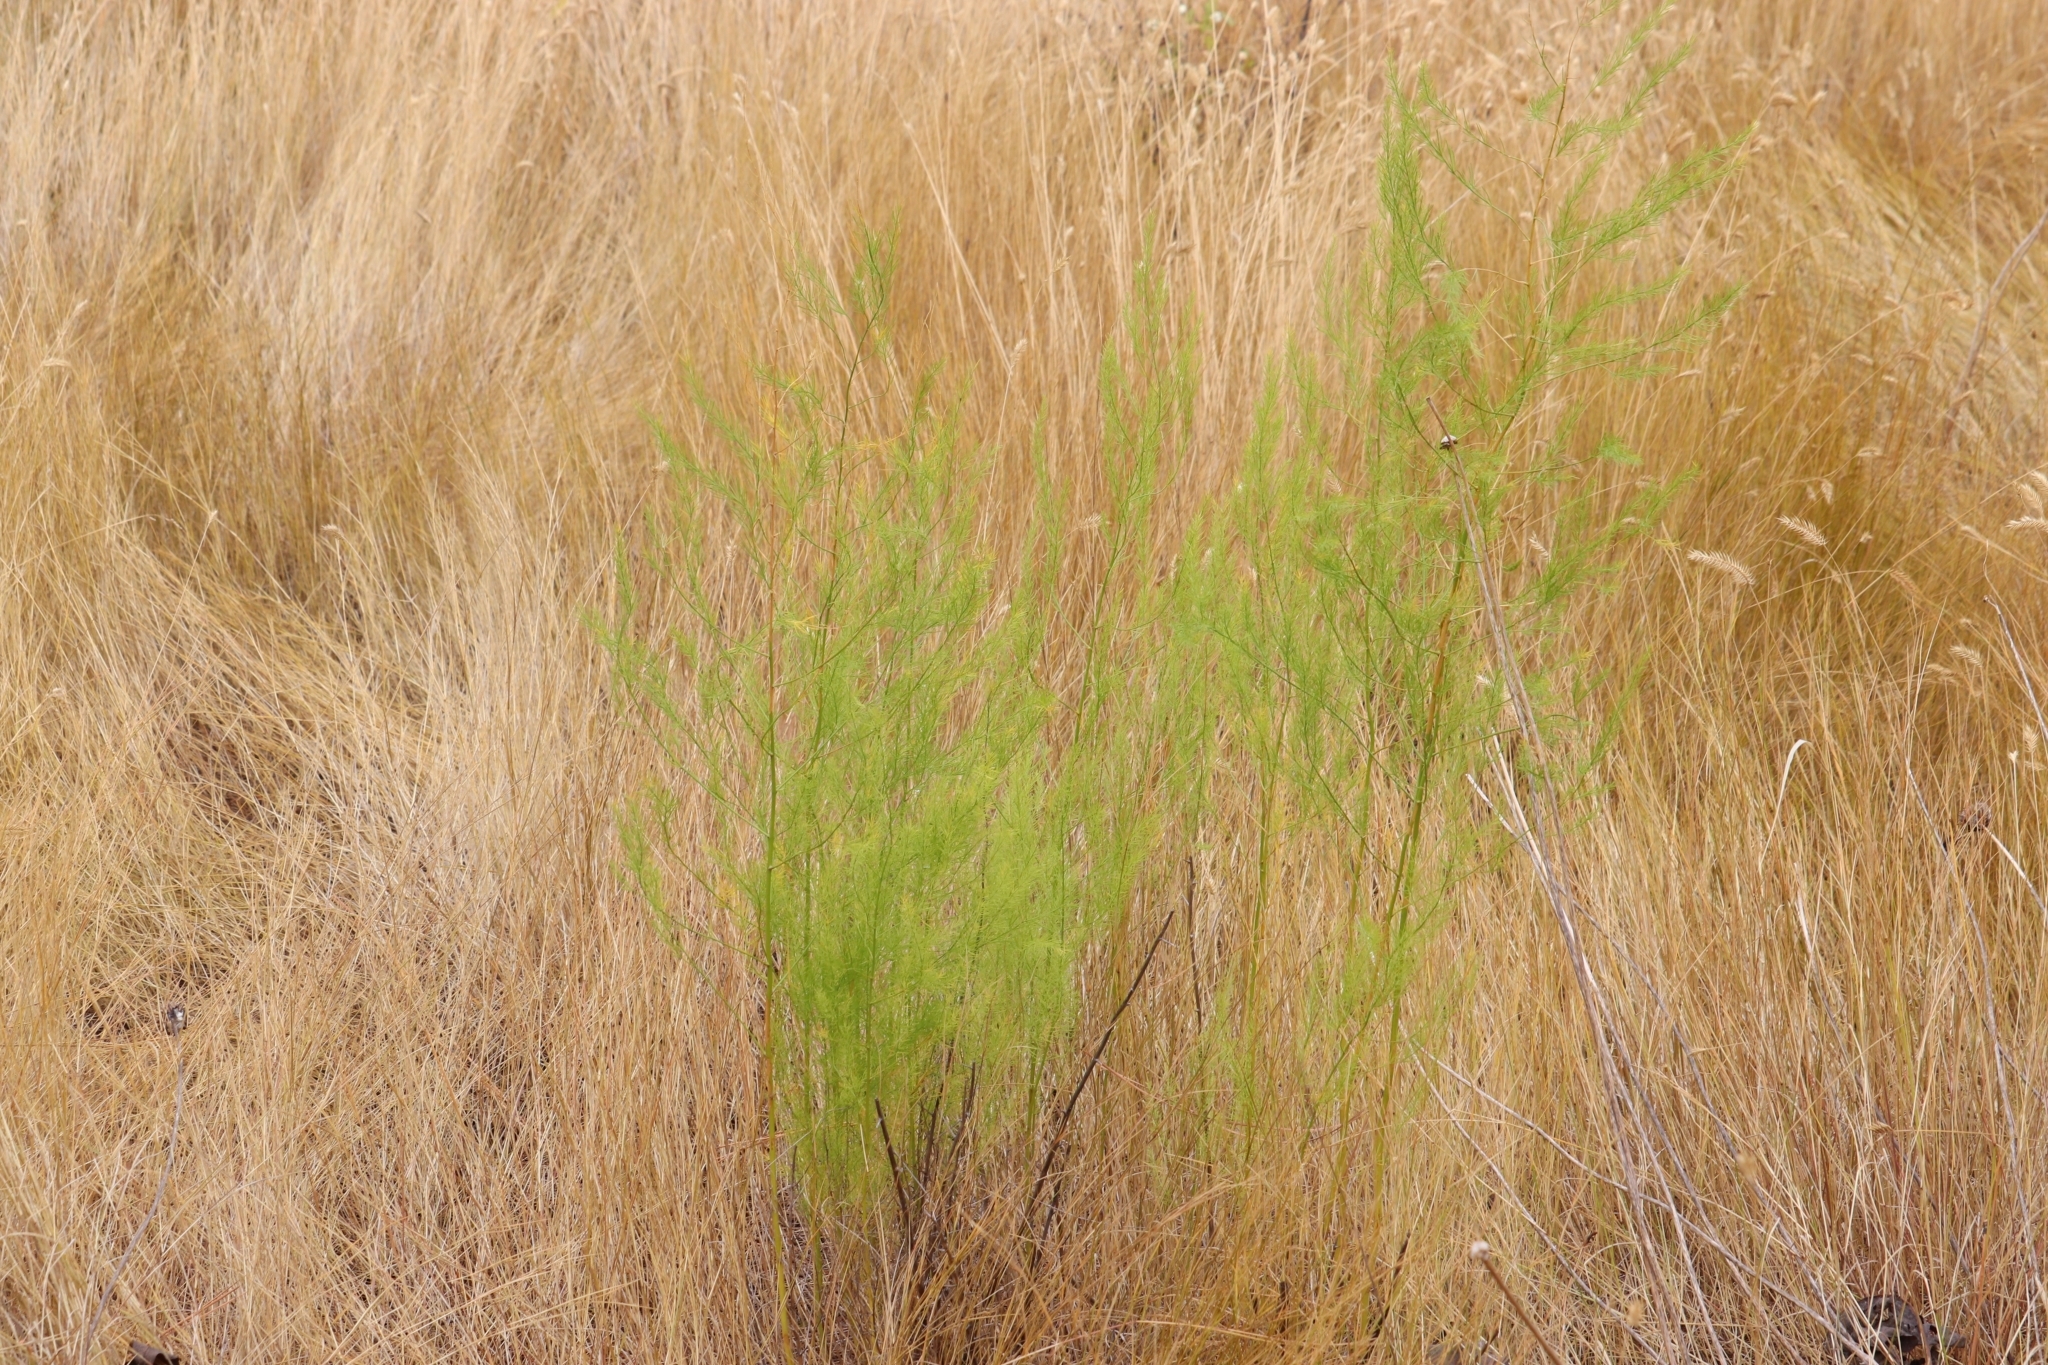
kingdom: Plantae
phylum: Tracheophyta
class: Liliopsida
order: Asparagales
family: Asparagaceae
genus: Asparagus
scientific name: Asparagus officinalis
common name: Garden asparagus
